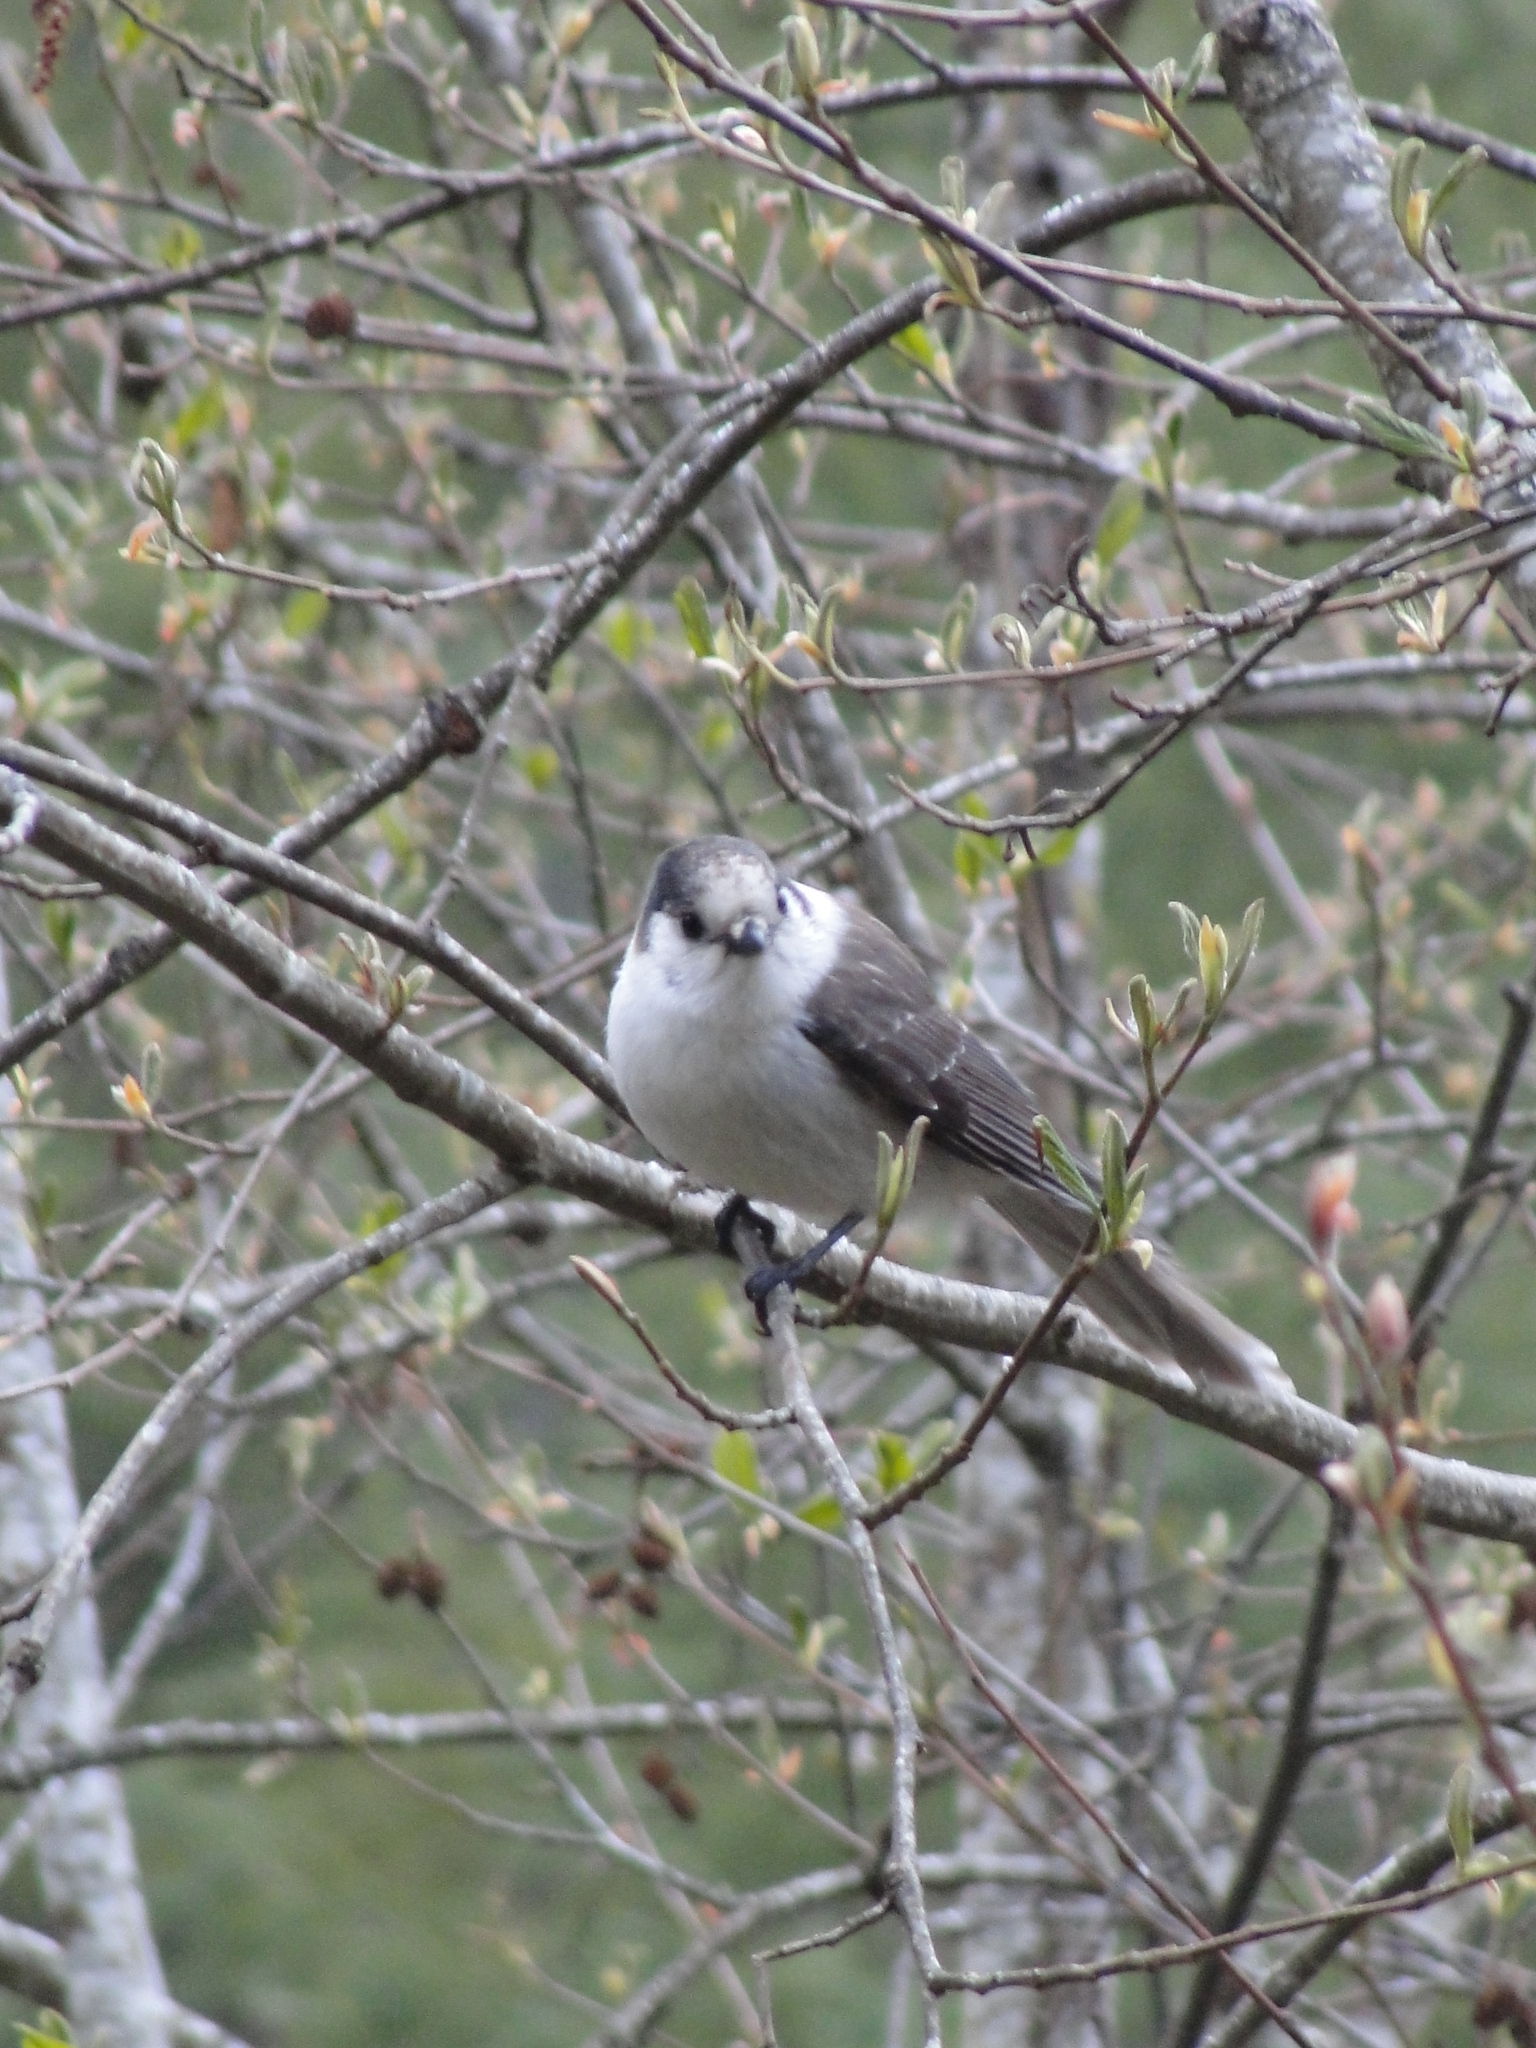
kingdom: Animalia
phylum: Chordata
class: Aves
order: Passeriformes
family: Corvidae
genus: Perisoreus
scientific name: Perisoreus canadensis
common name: Gray jay
